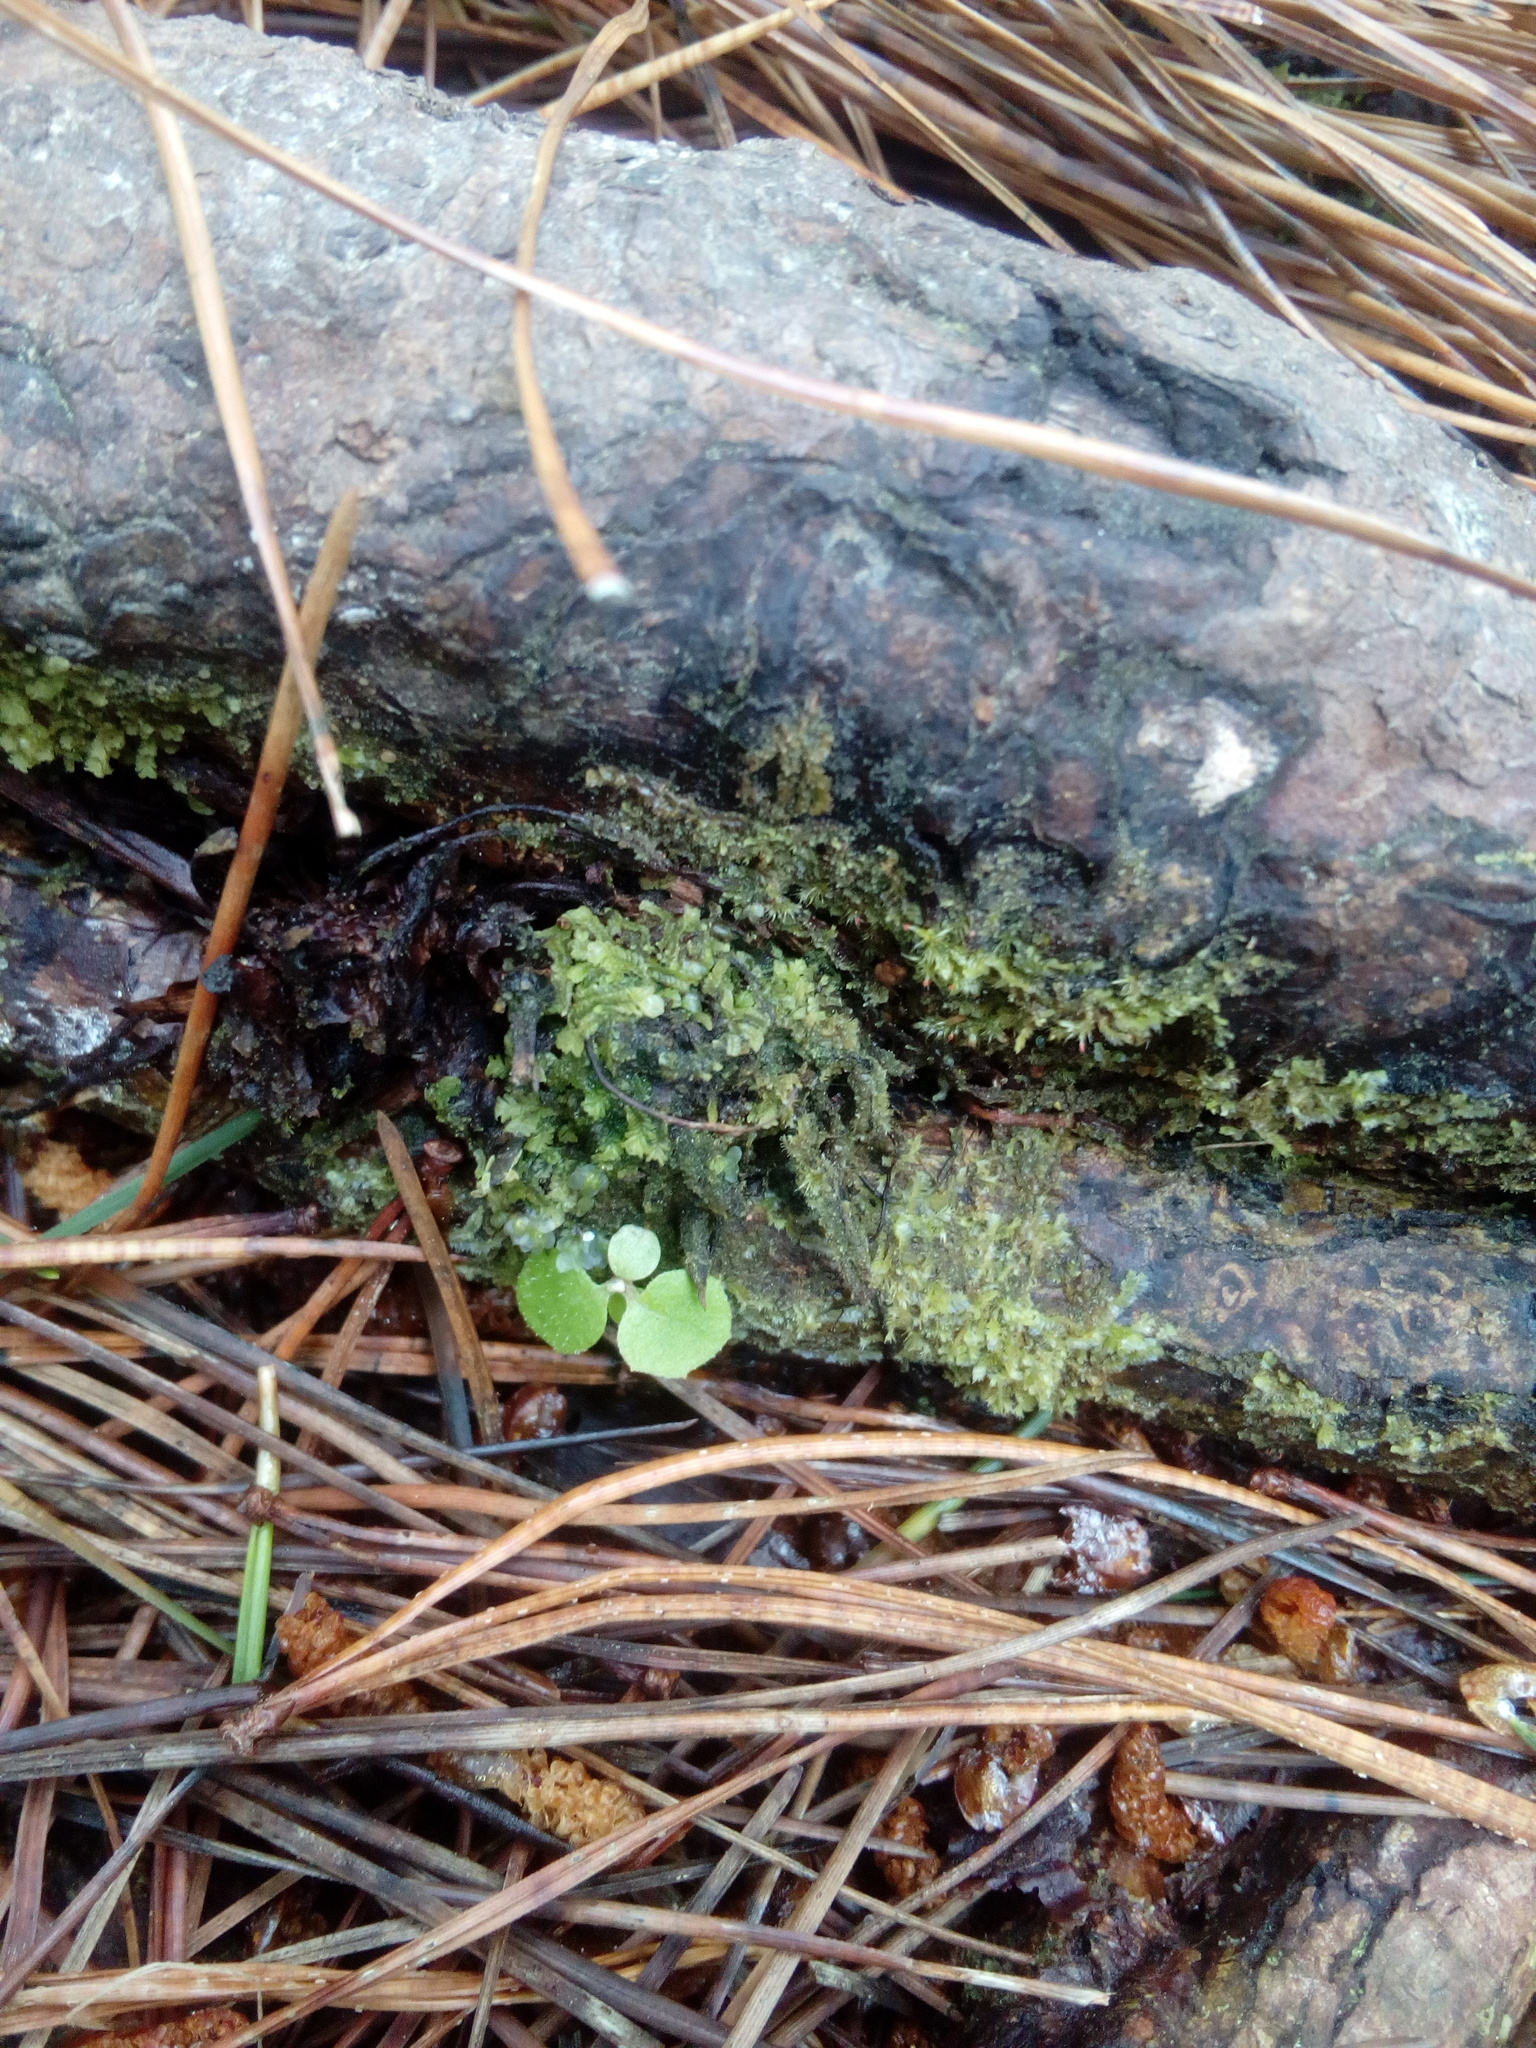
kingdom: Plantae
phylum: Tracheophyta
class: Magnoliopsida
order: Asterales
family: Asteraceae
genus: Brachyglottis
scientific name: Brachyglottis repanda
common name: Hedge ragwort
